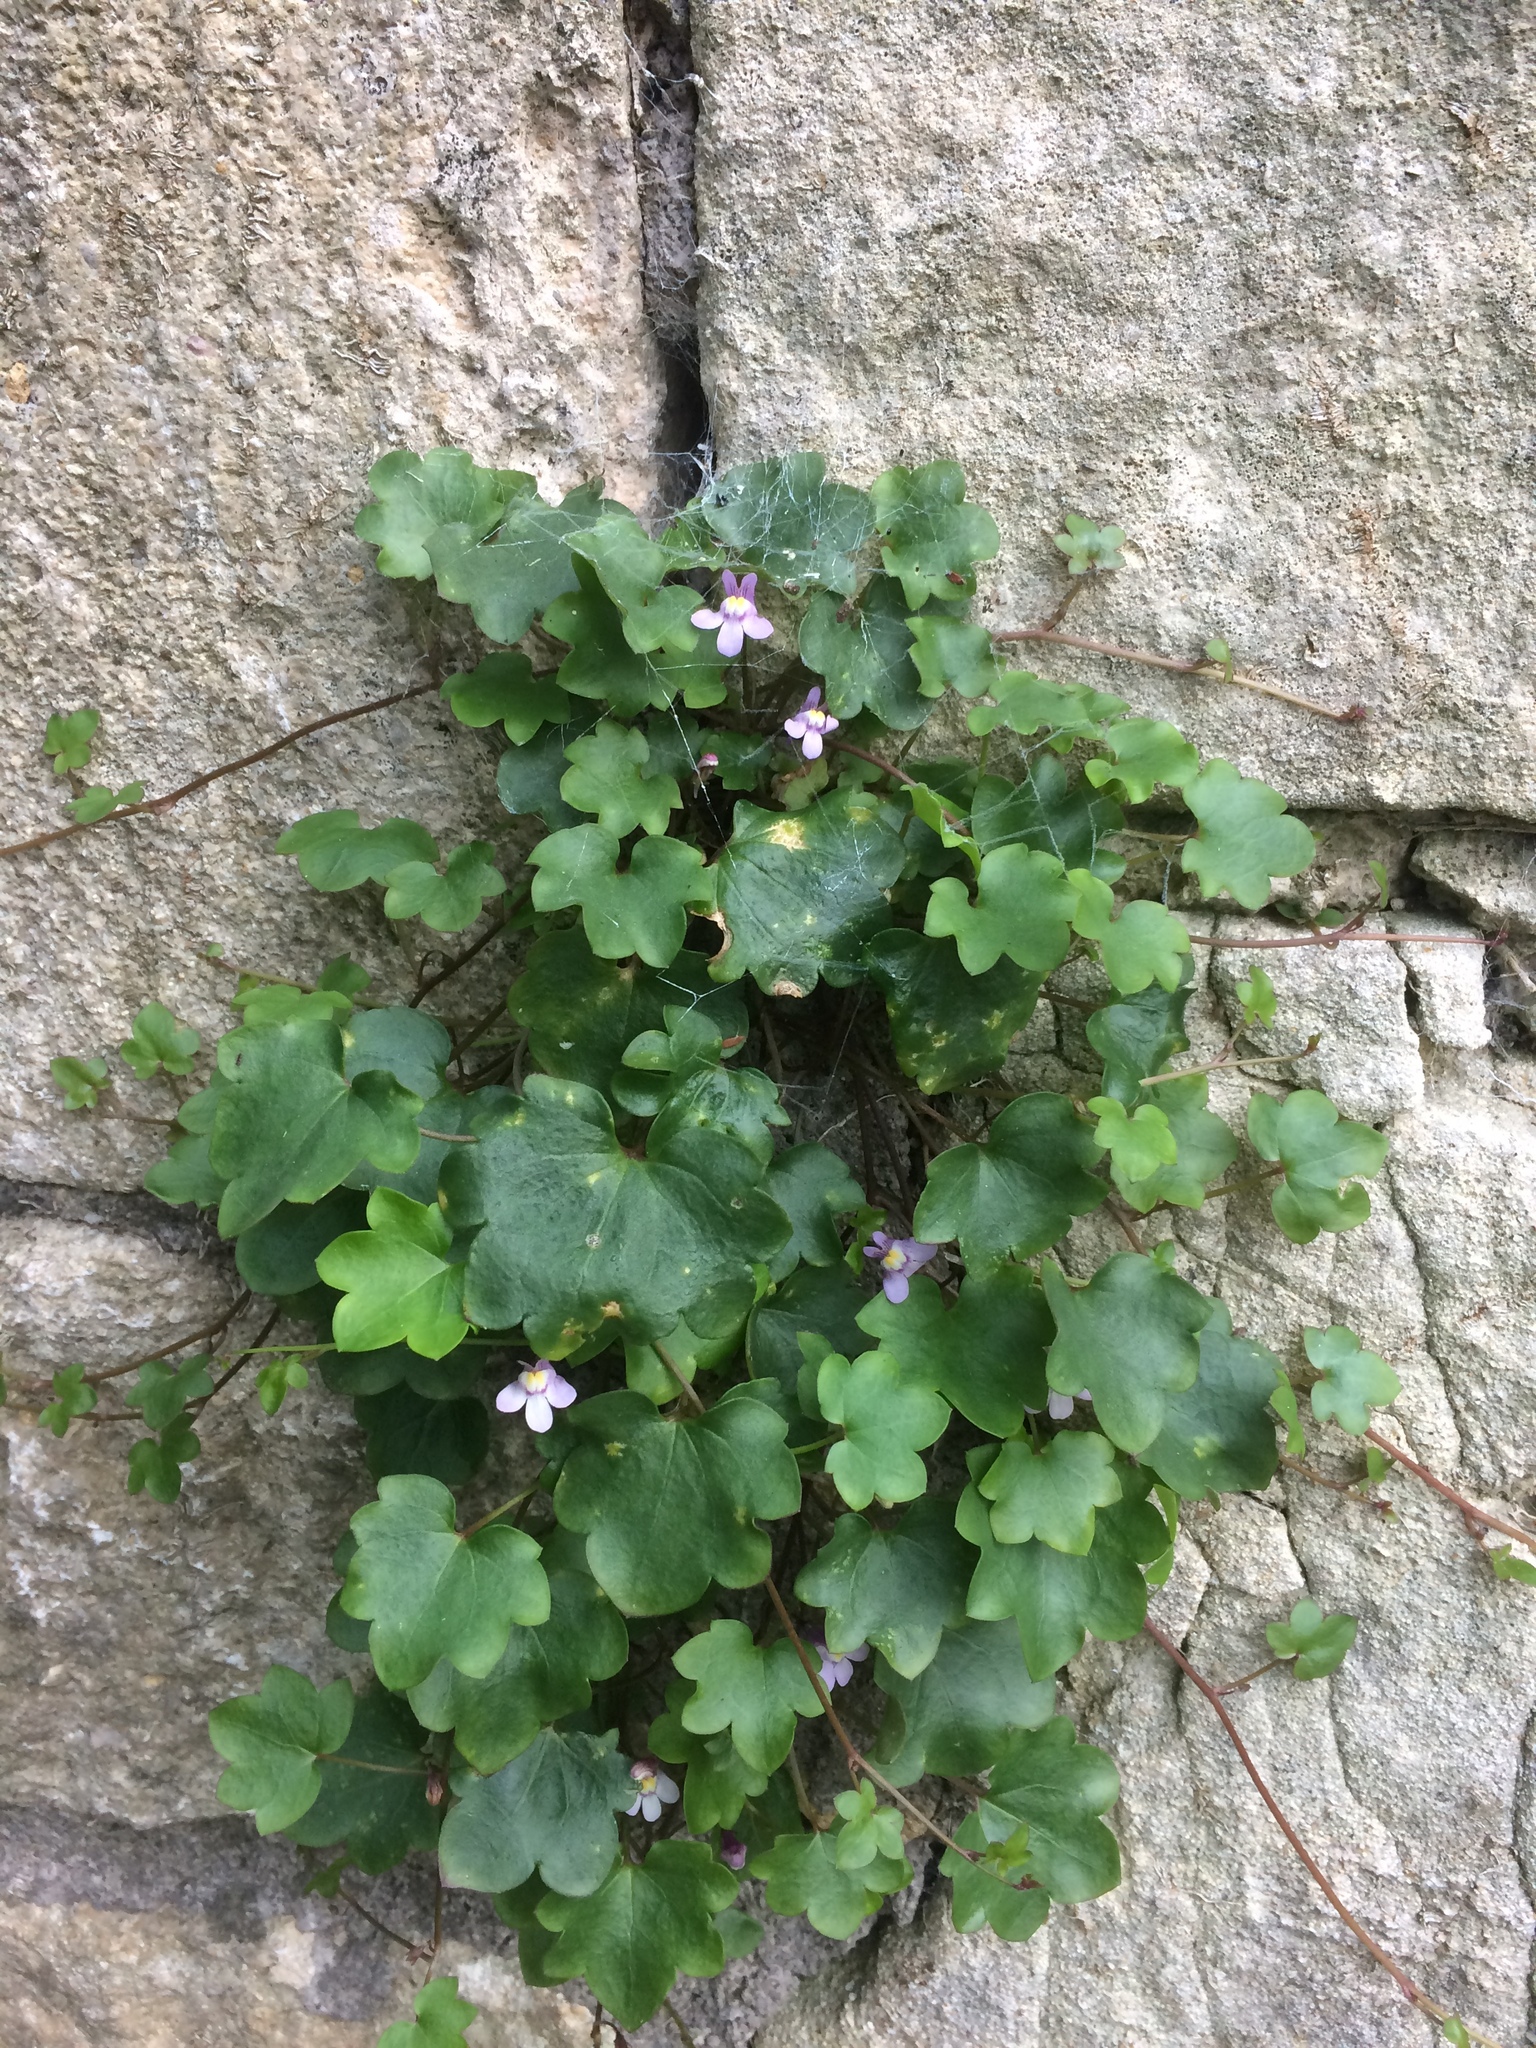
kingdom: Plantae
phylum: Tracheophyta
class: Magnoliopsida
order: Lamiales
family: Plantaginaceae
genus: Cymbalaria
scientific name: Cymbalaria muralis
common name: Ivy-leaved toadflax
